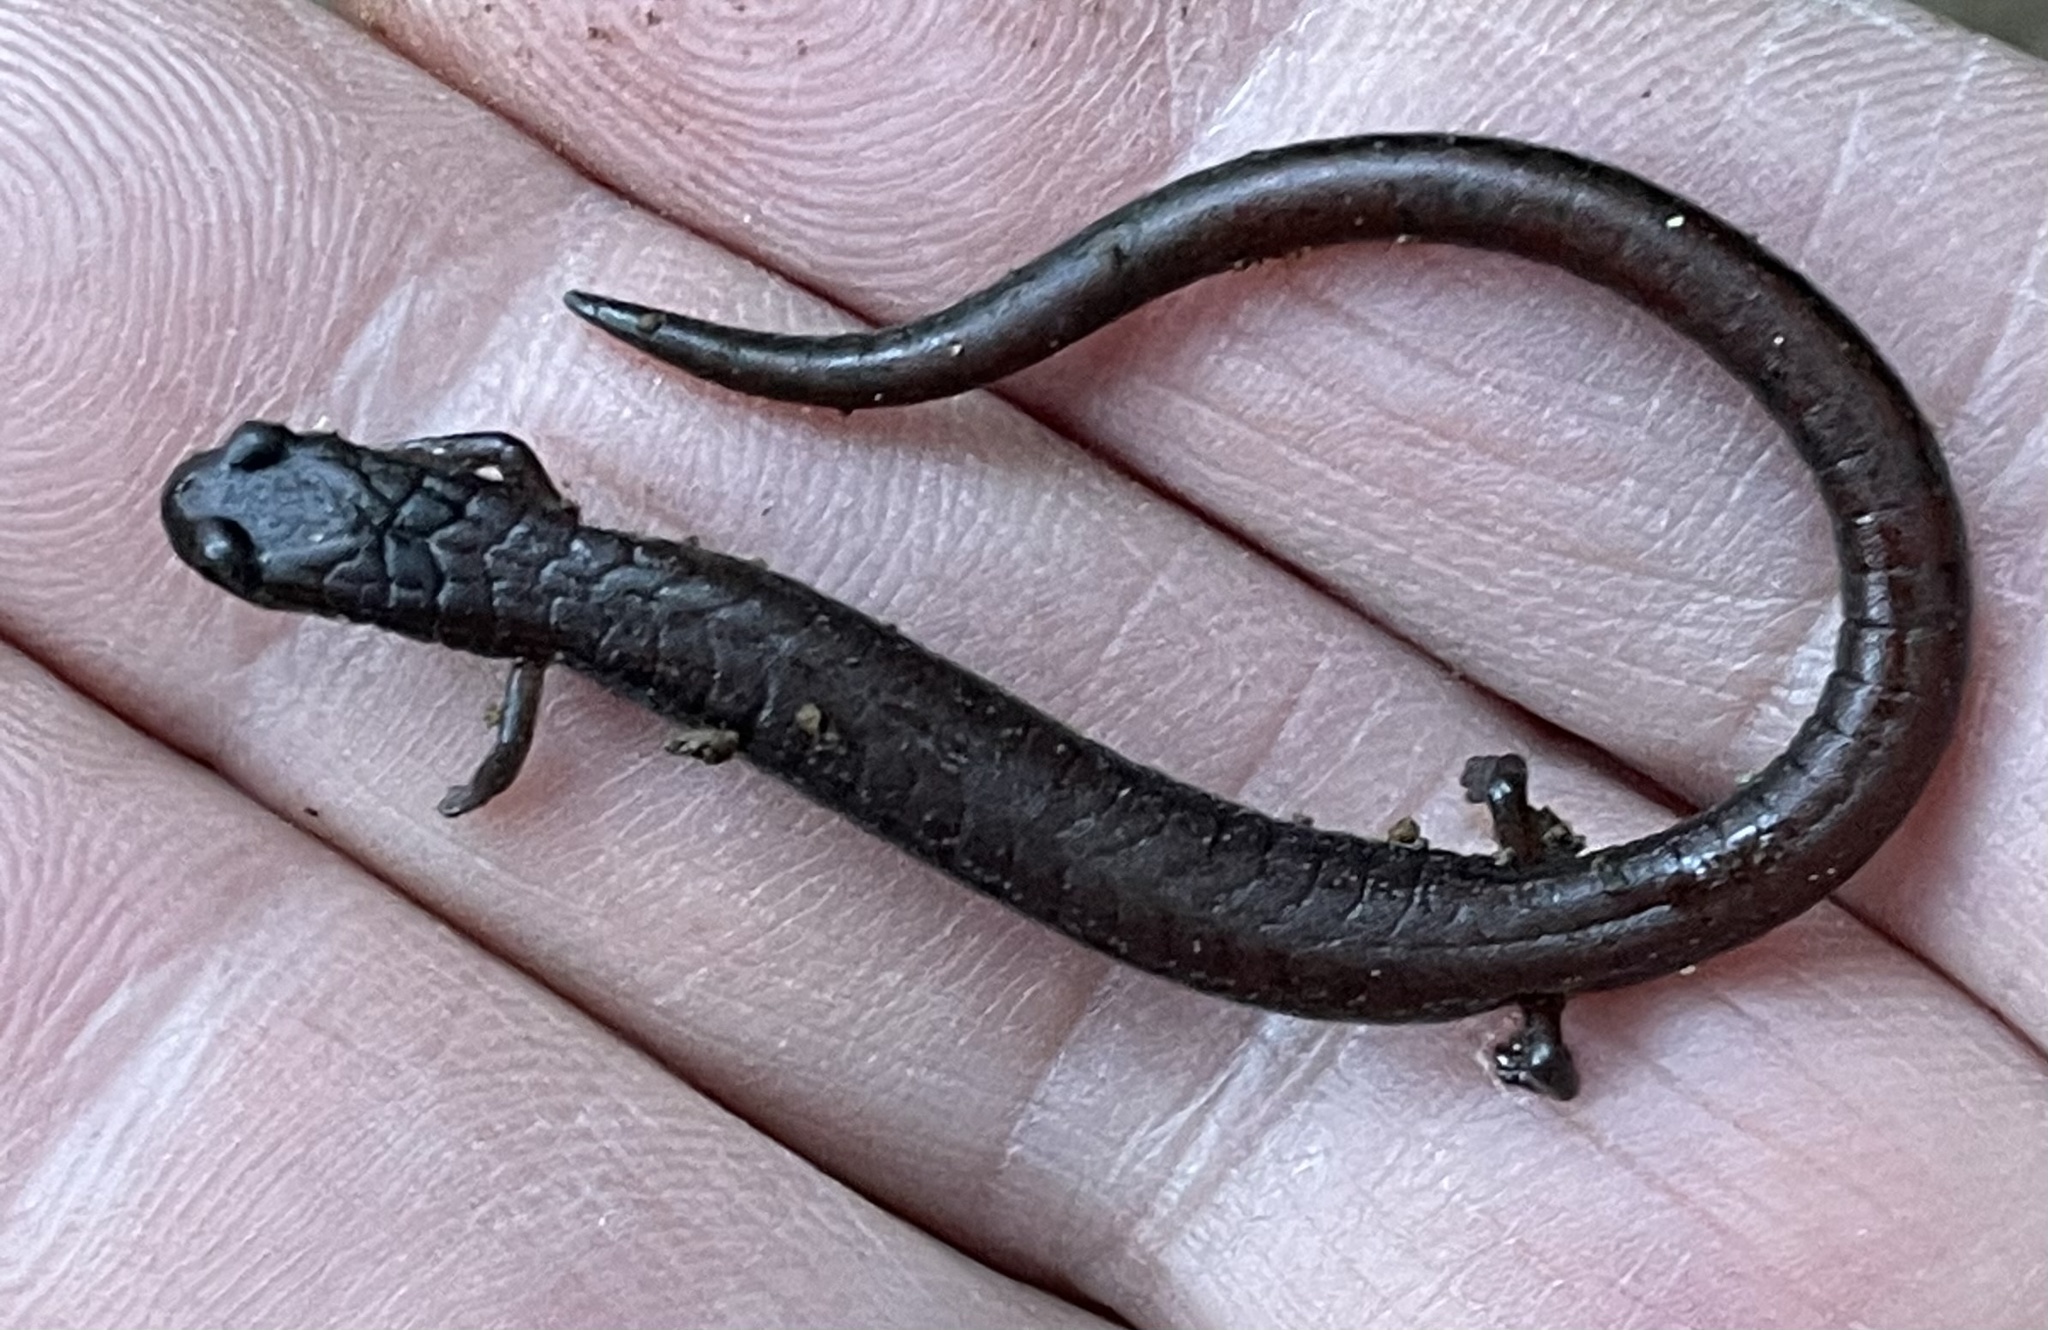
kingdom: Animalia
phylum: Chordata
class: Amphibia
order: Caudata
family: Plethodontidae
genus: Batrachoseps
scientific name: Batrachoseps attenuatus
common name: California slender salamander
